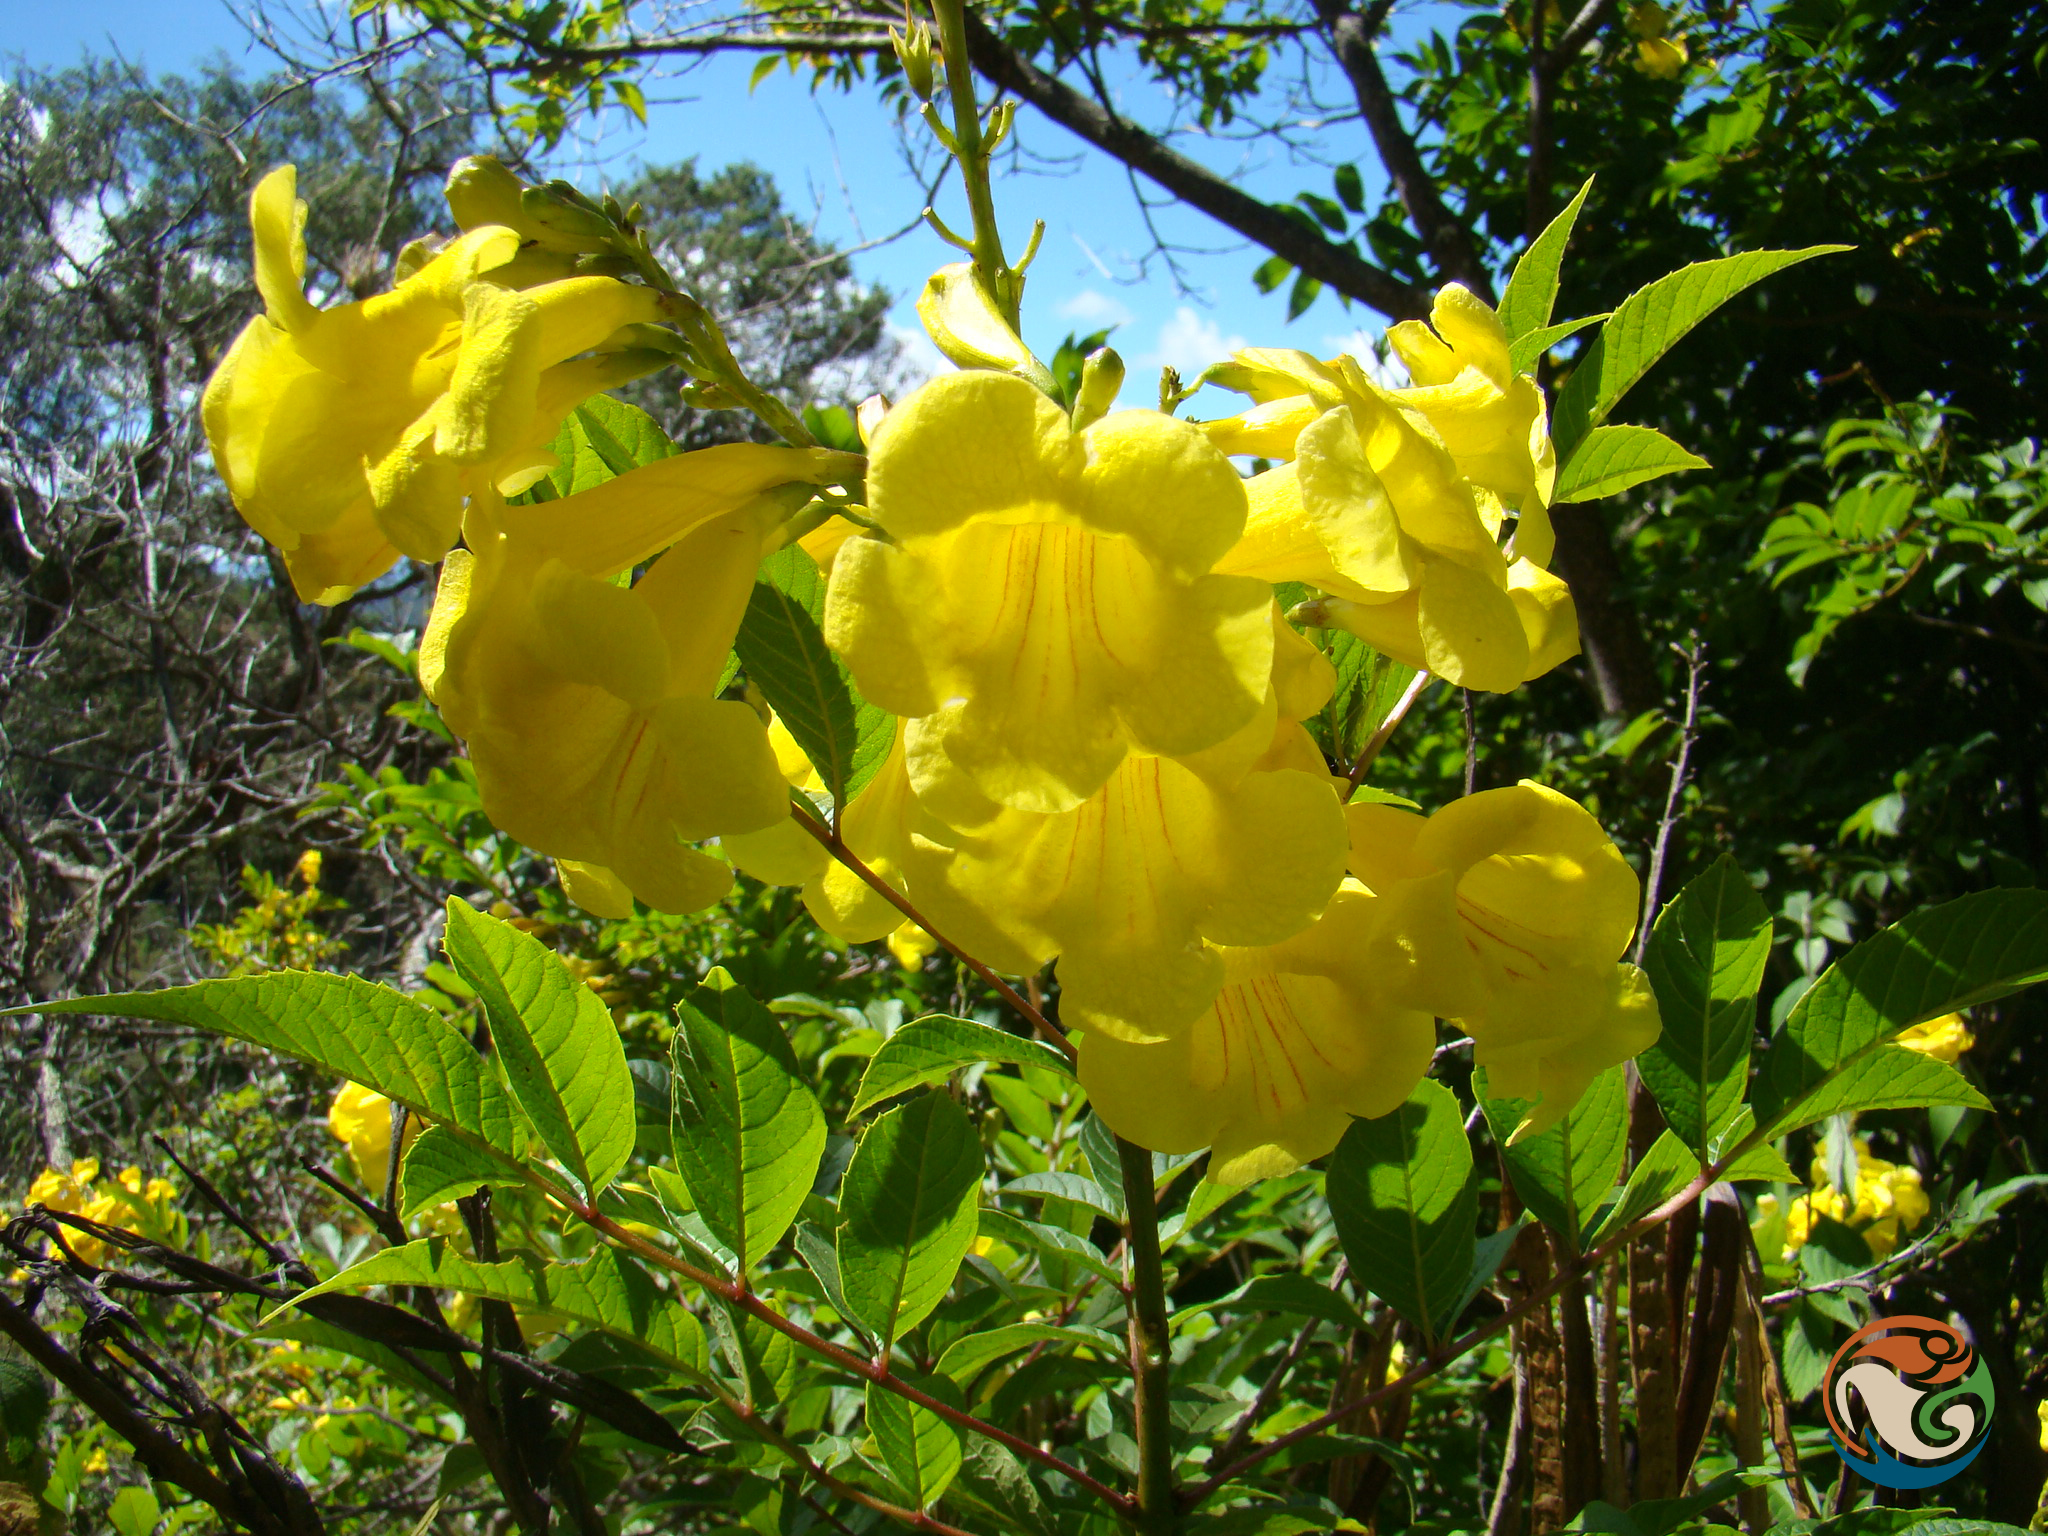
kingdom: Plantae
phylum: Tracheophyta
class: Magnoliopsida
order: Lamiales
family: Bignoniaceae
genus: Tecoma
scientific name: Tecoma stans
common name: Yellow trumpetbush
